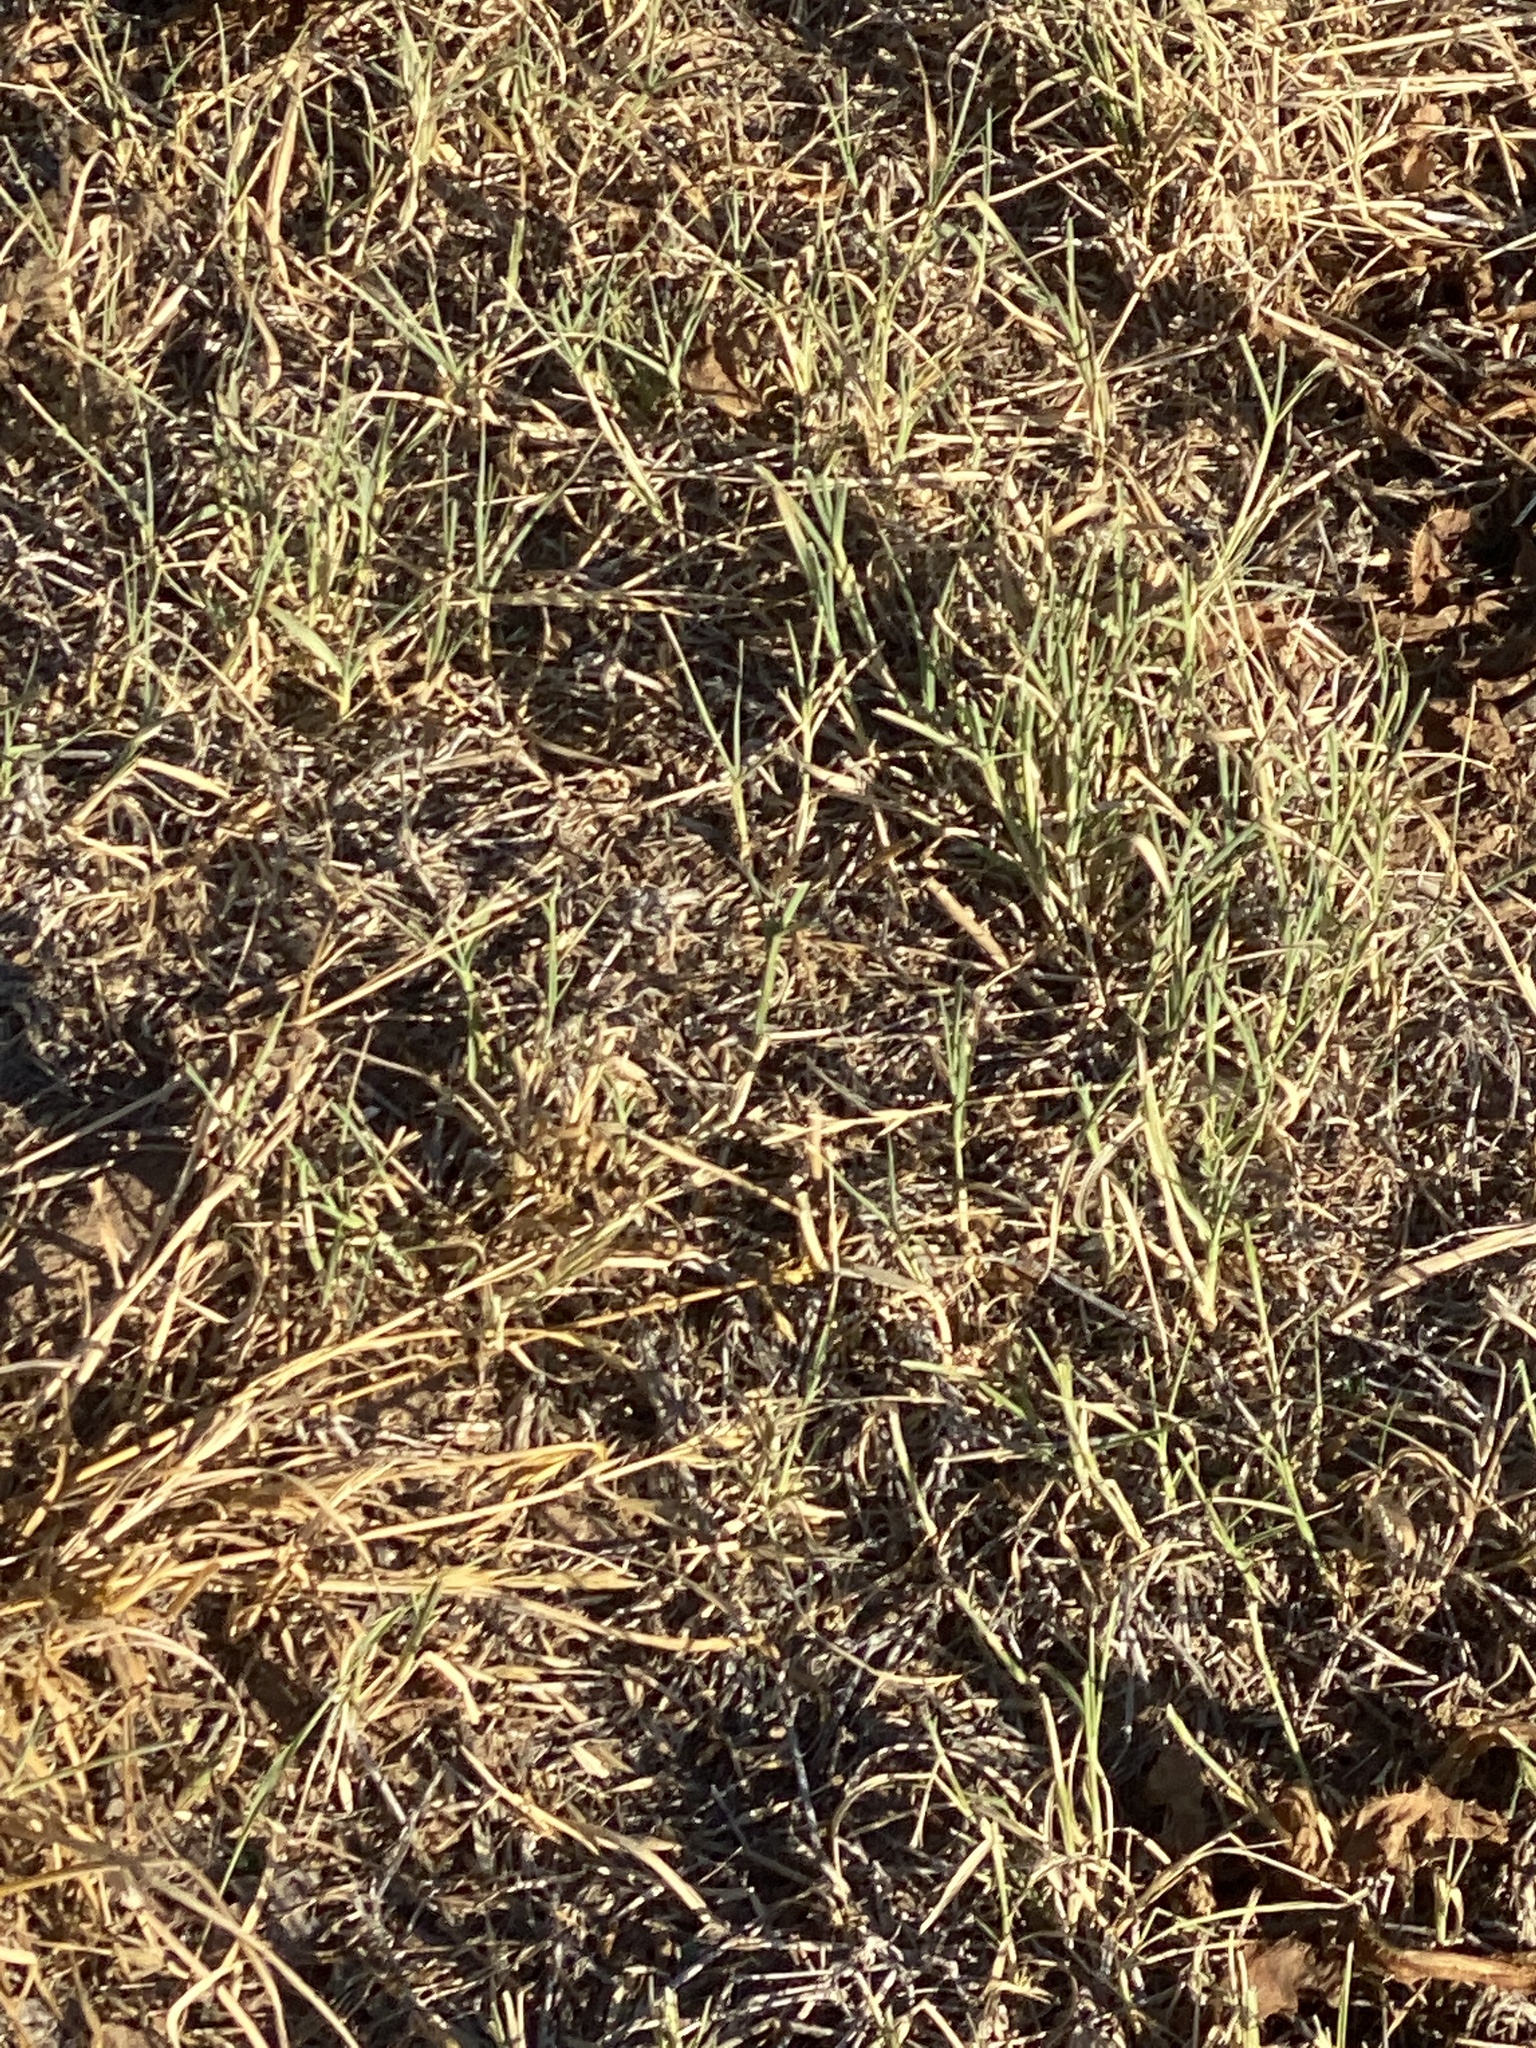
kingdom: Plantae
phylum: Tracheophyta
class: Liliopsida
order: Poales
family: Poaceae
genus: Cynodon
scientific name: Cynodon dactylon
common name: Bermuda grass
